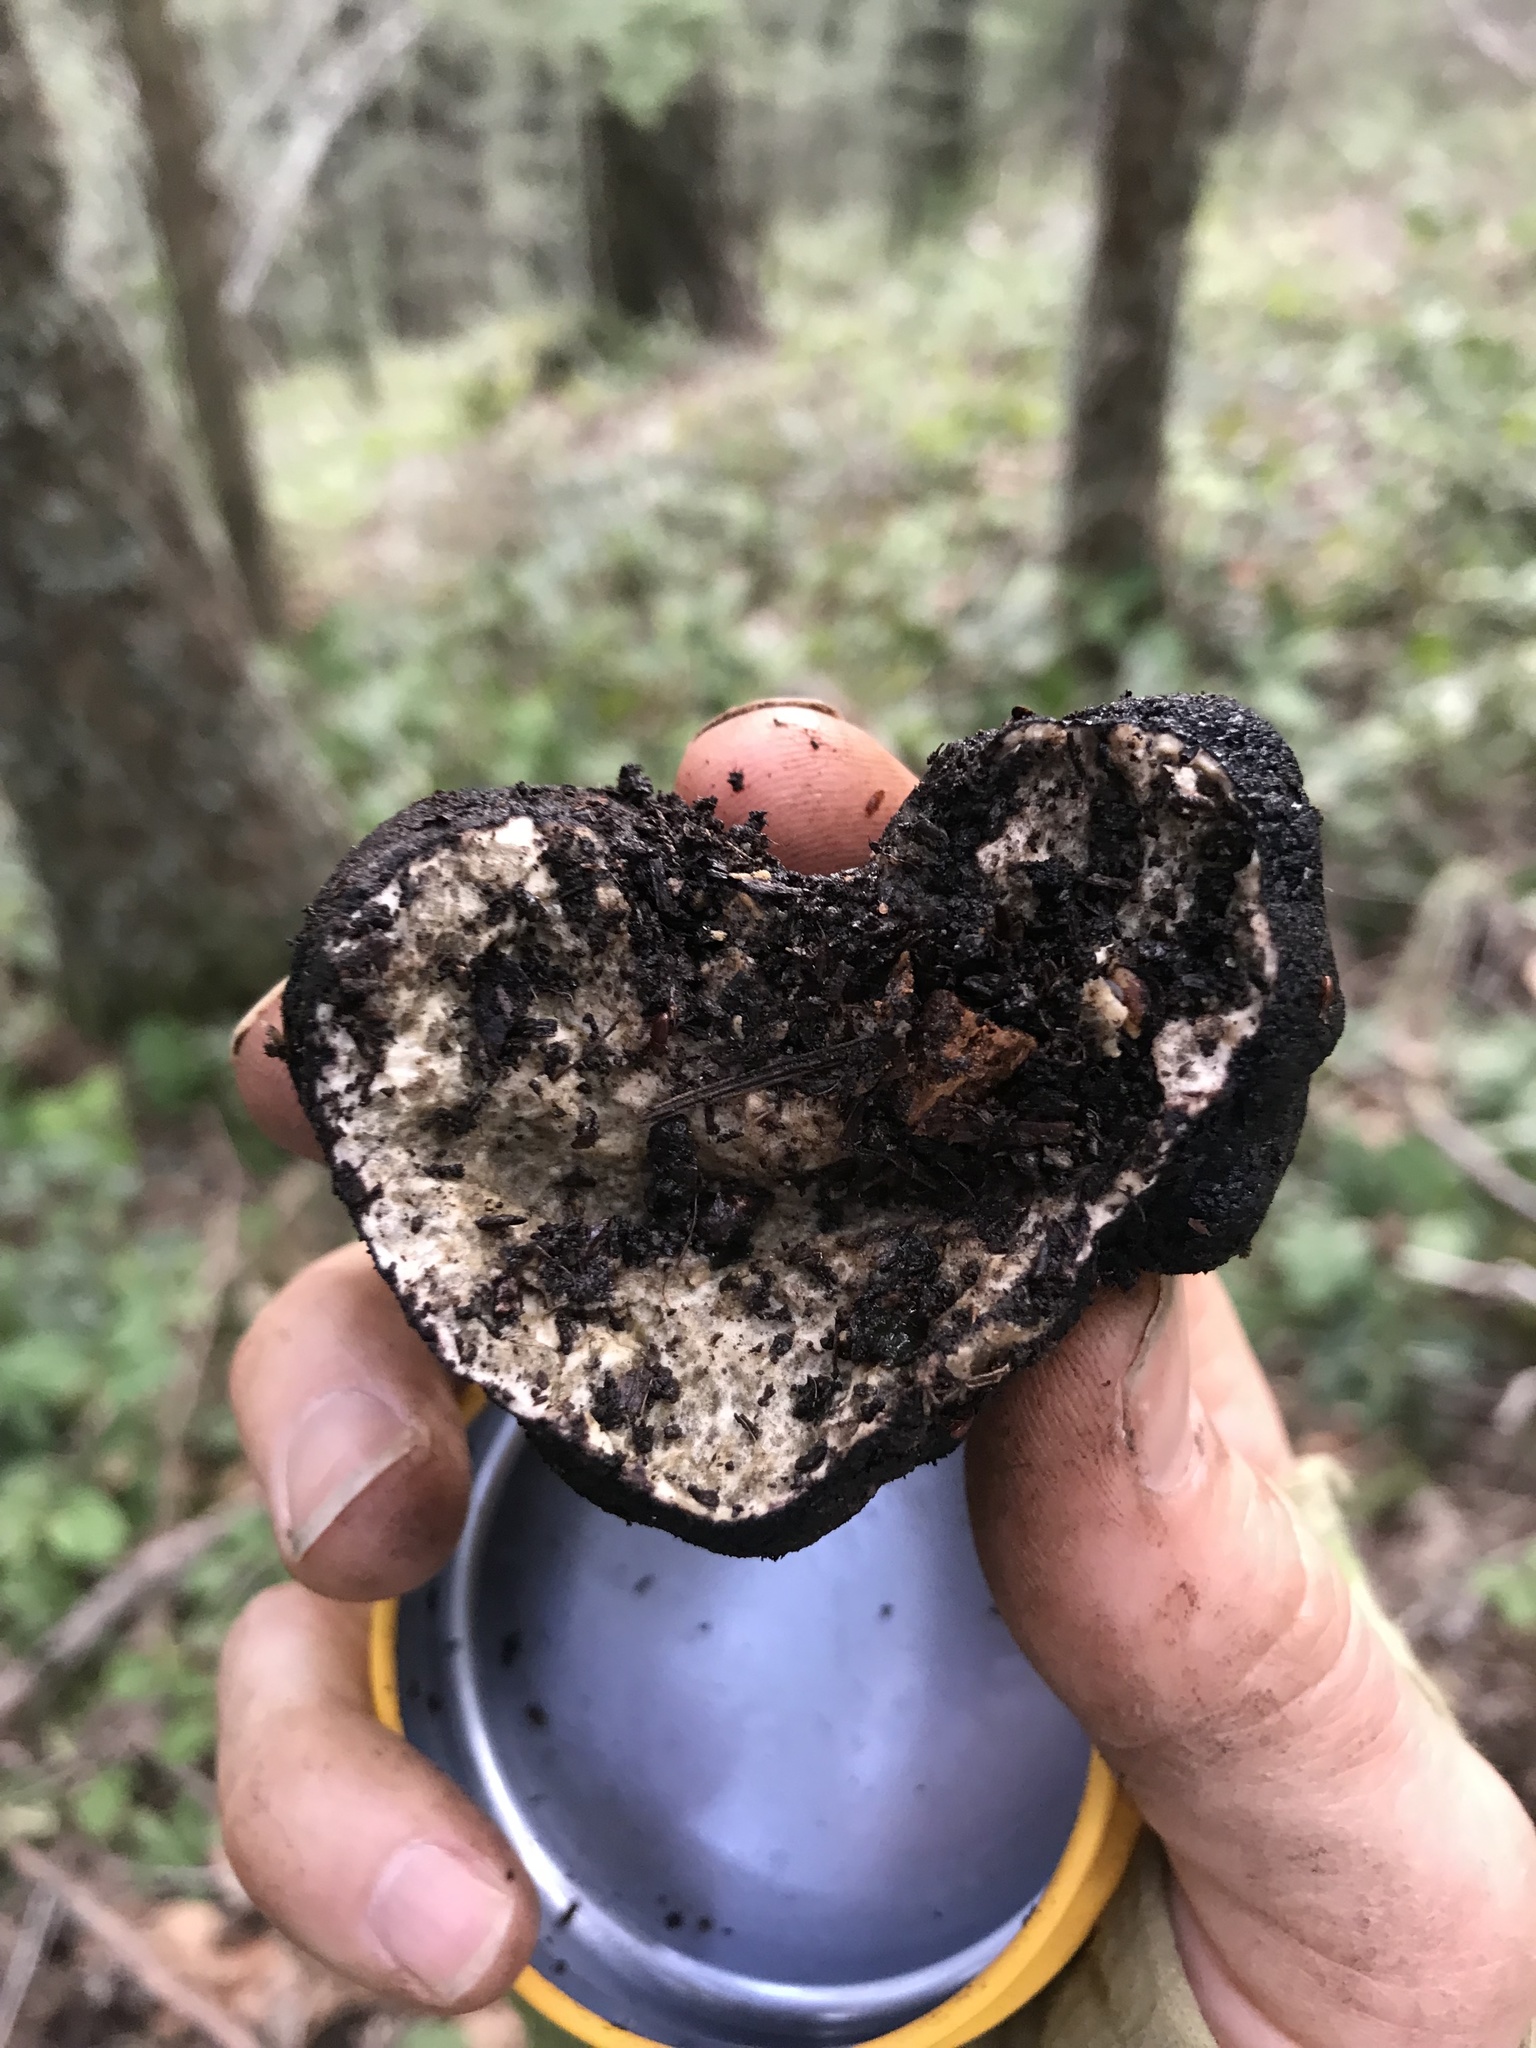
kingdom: Fungi
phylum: Ascomycota
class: Pezizomycetes
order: Pezizales
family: Morchellaceae
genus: Leucangium
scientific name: Leucangium carthusianum
